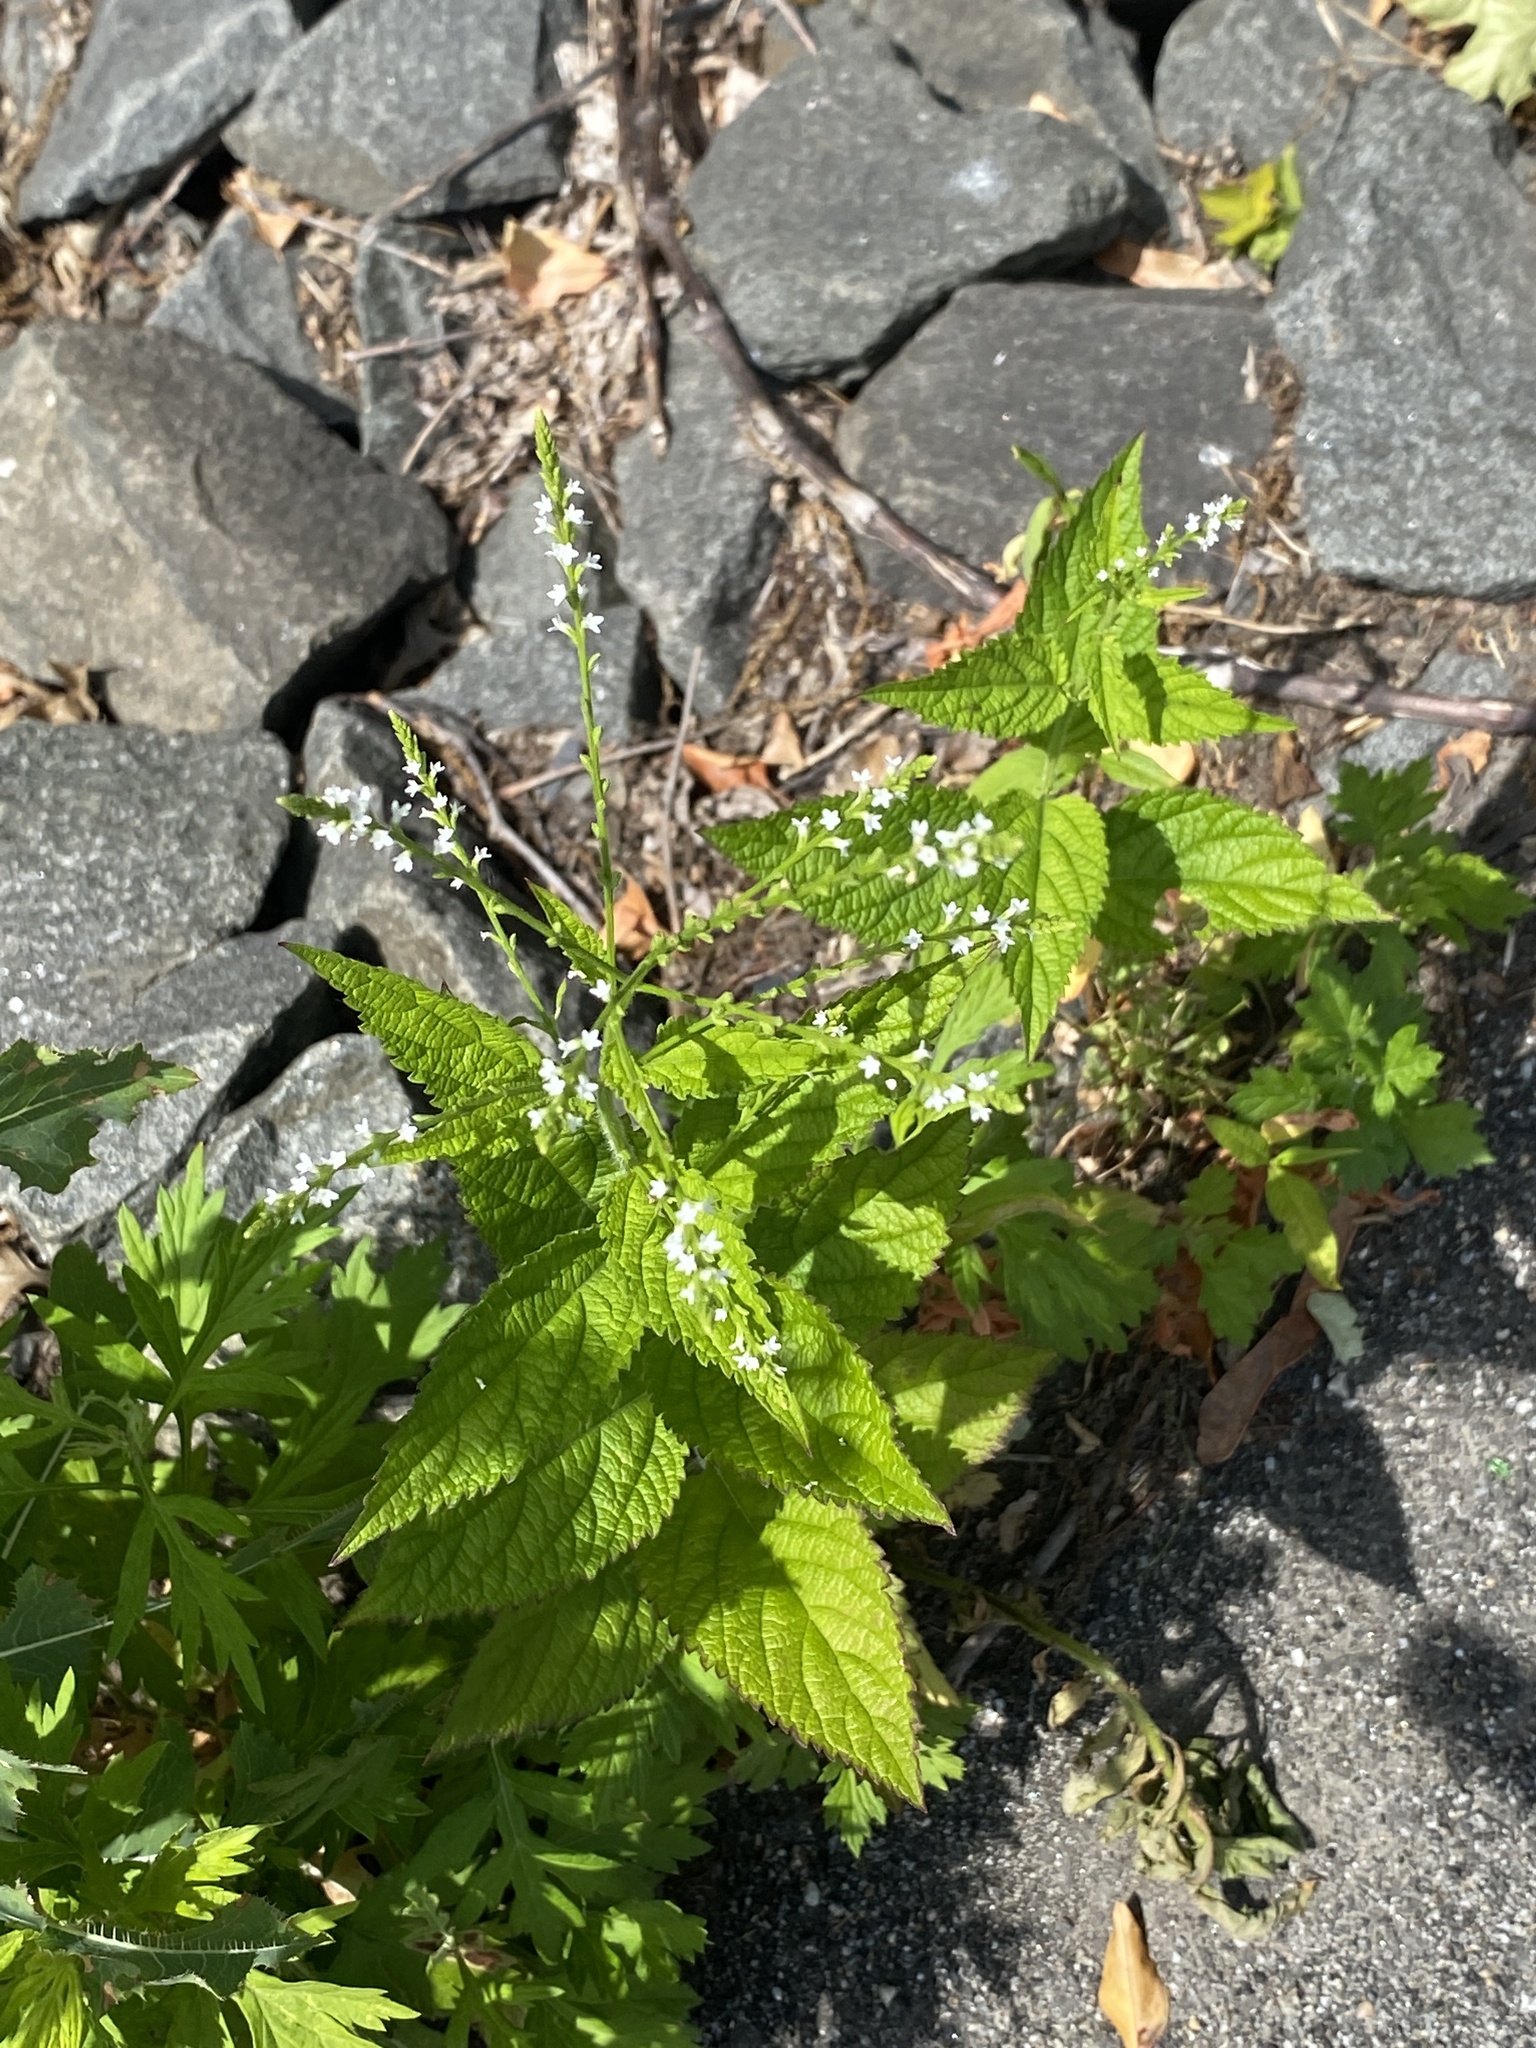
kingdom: Plantae
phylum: Tracheophyta
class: Magnoliopsida
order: Lamiales
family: Verbenaceae
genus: Verbena
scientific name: Verbena urticifolia
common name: Nettle-leaved vervain
